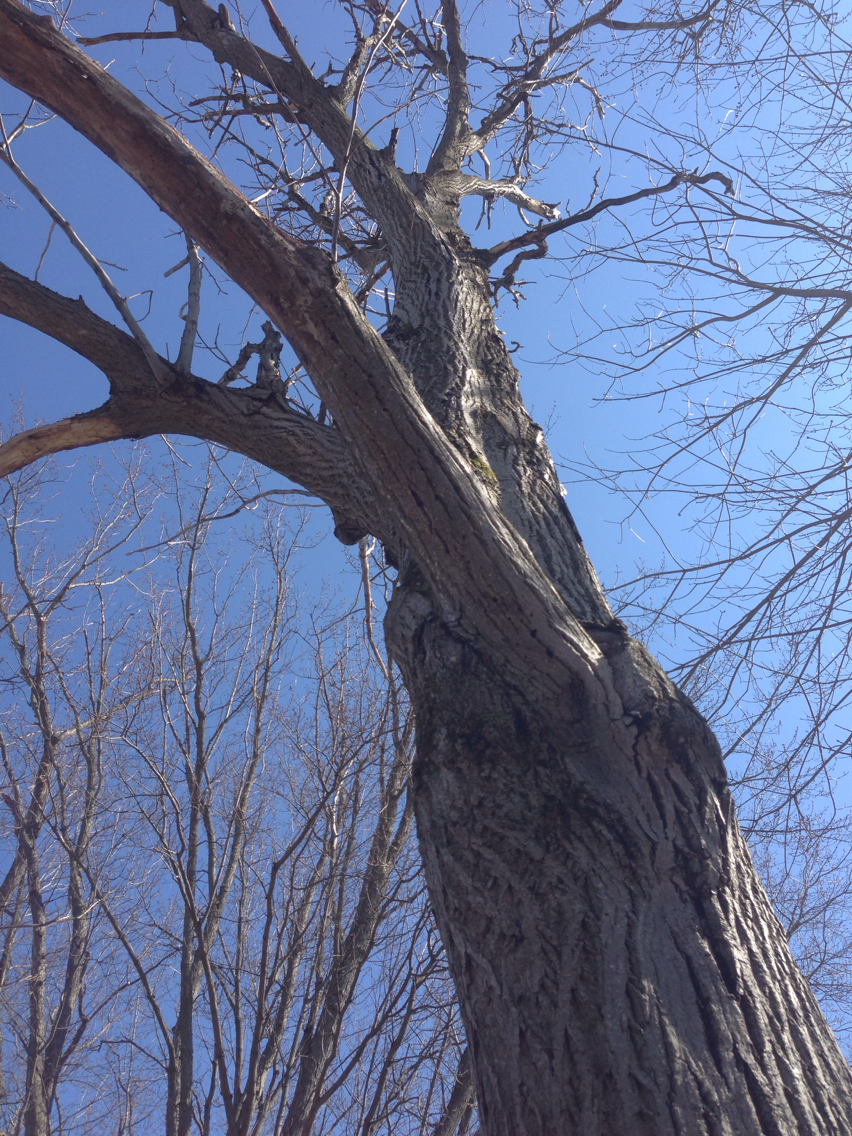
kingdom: Plantae
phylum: Tracheophyta
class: Magnoliopsida
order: Fagales
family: Juglandaceae
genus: Juglans
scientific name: Juglans cinerea
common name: Butternut
